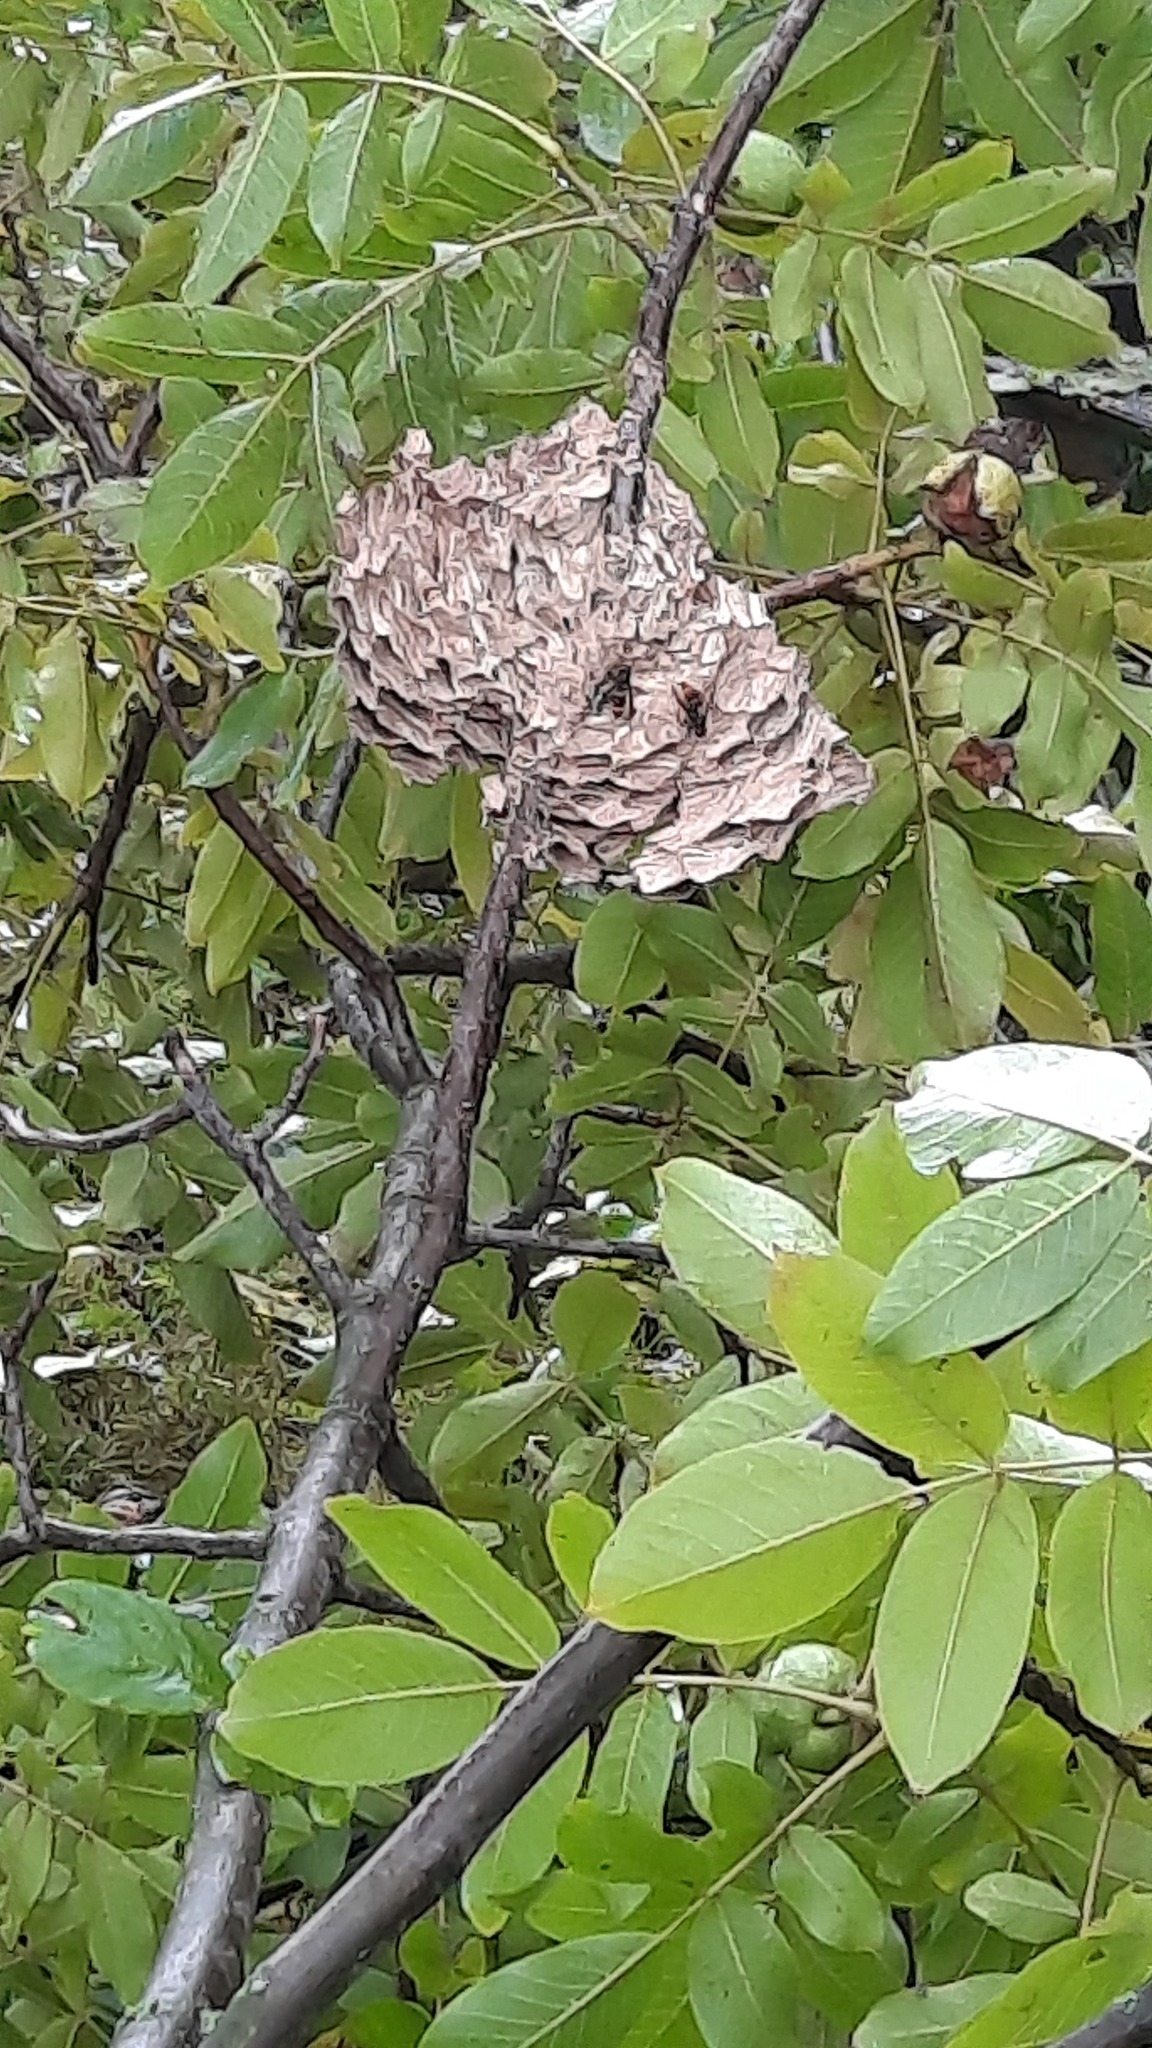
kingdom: Animalia
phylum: Arthropoda
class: Insecta
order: Hymenoptera
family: Vespidae
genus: Vespa
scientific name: Vespa velutina
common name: Asian hornet
